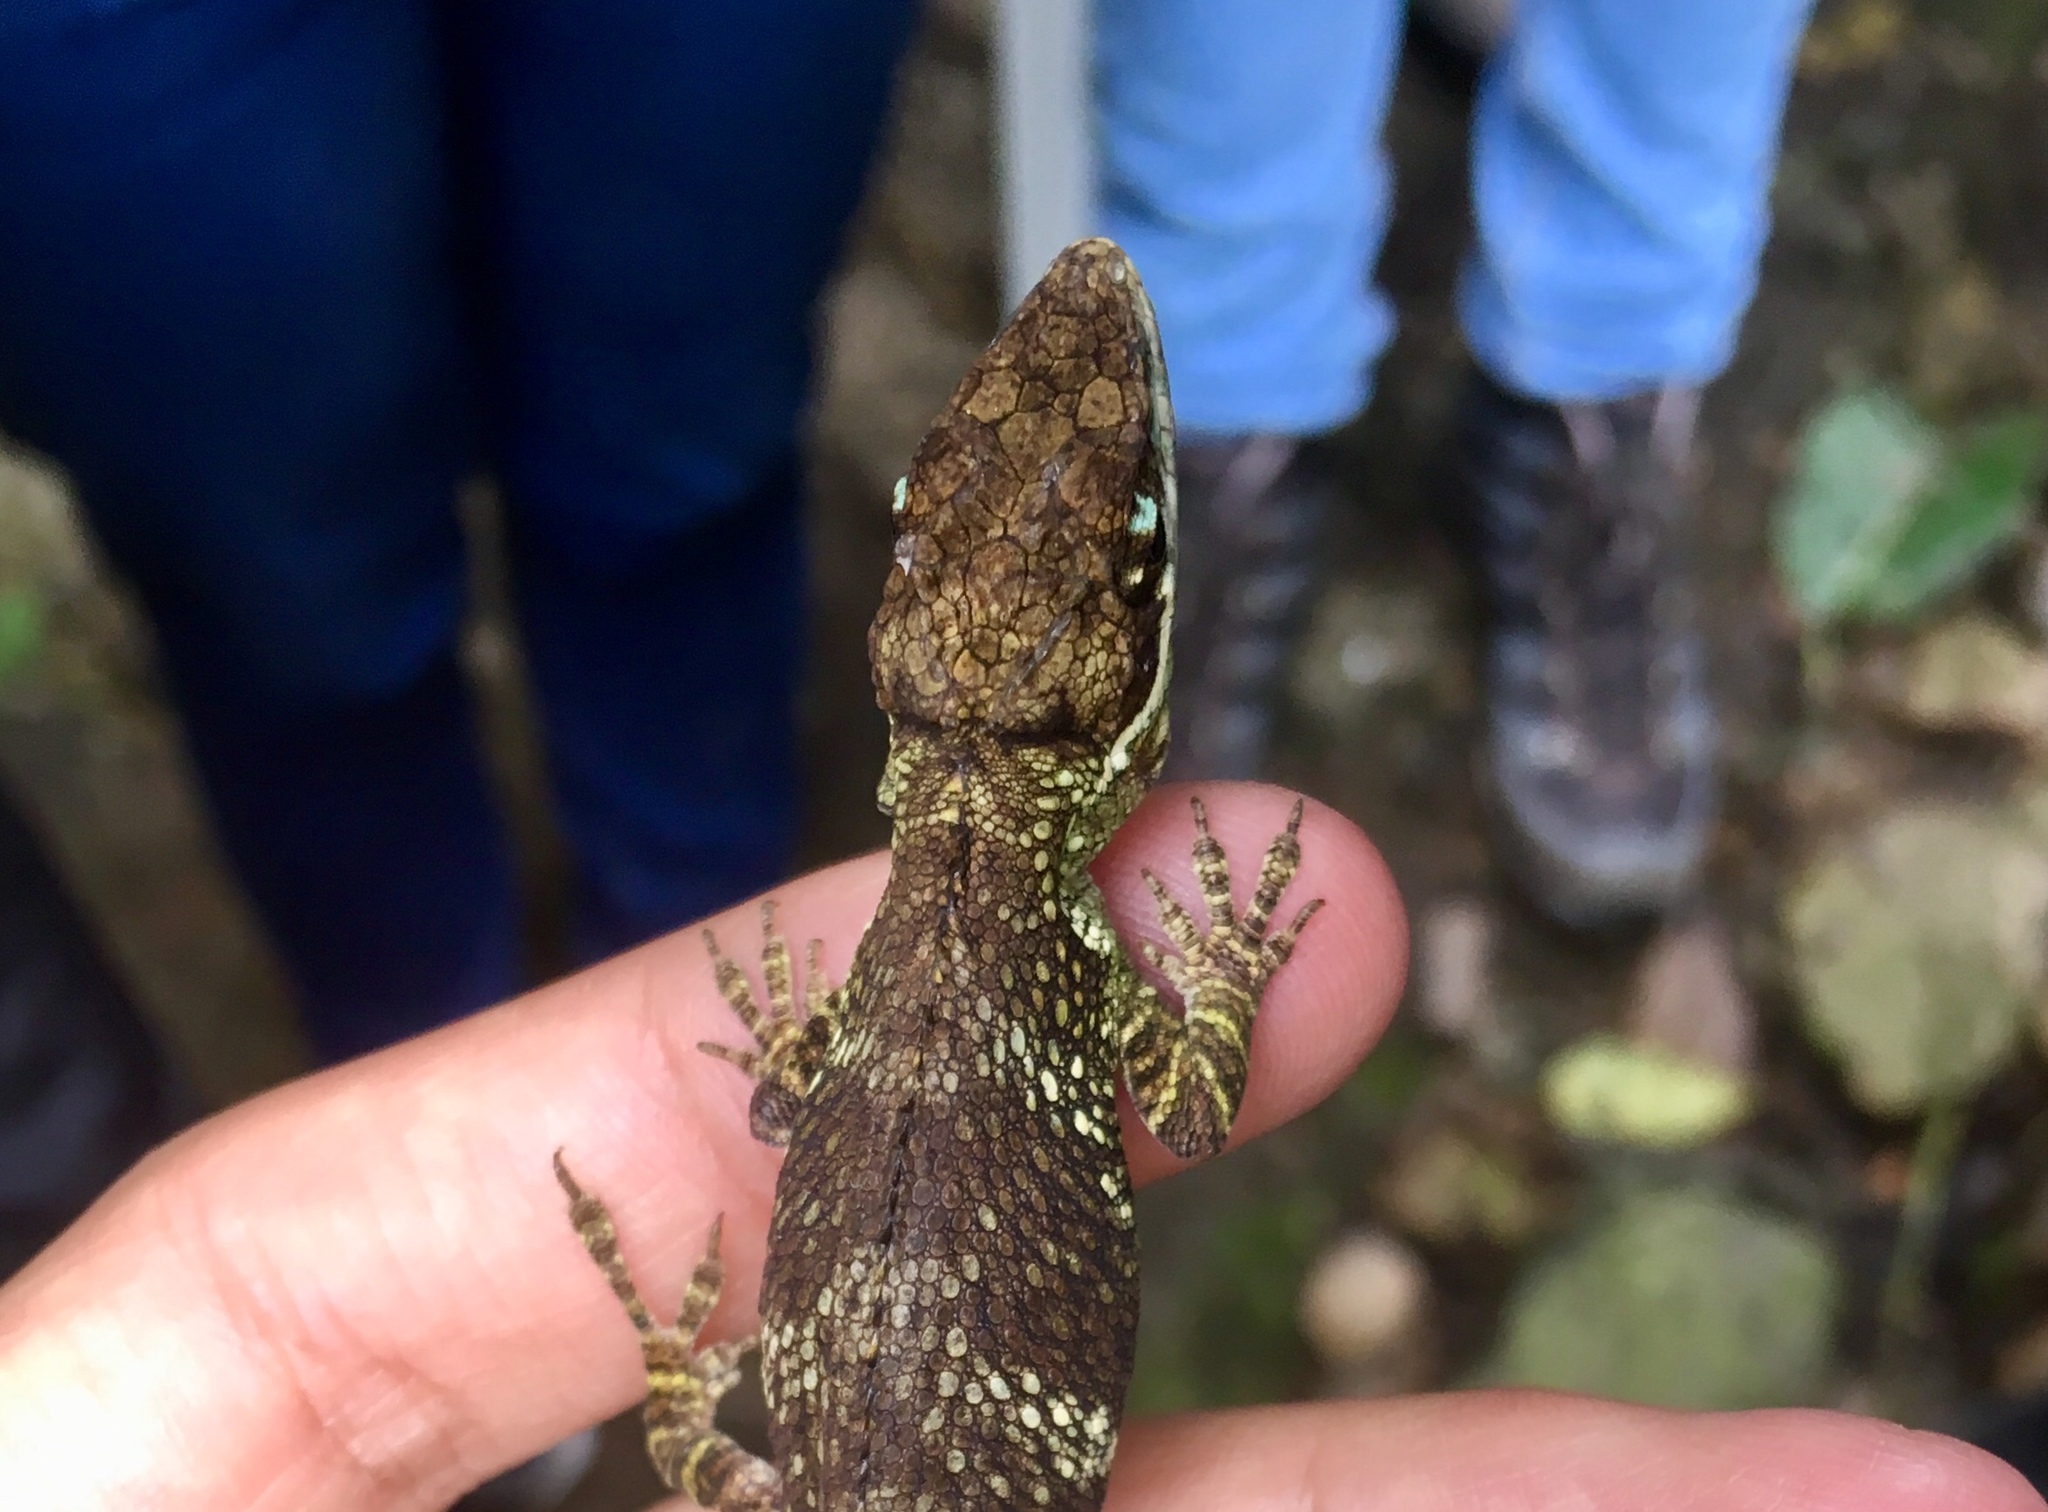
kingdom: Animalia
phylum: Chordata
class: Squamata
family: Dactyloidae
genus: Anolis
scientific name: Anolis heterodermus
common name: Flat andes anole
